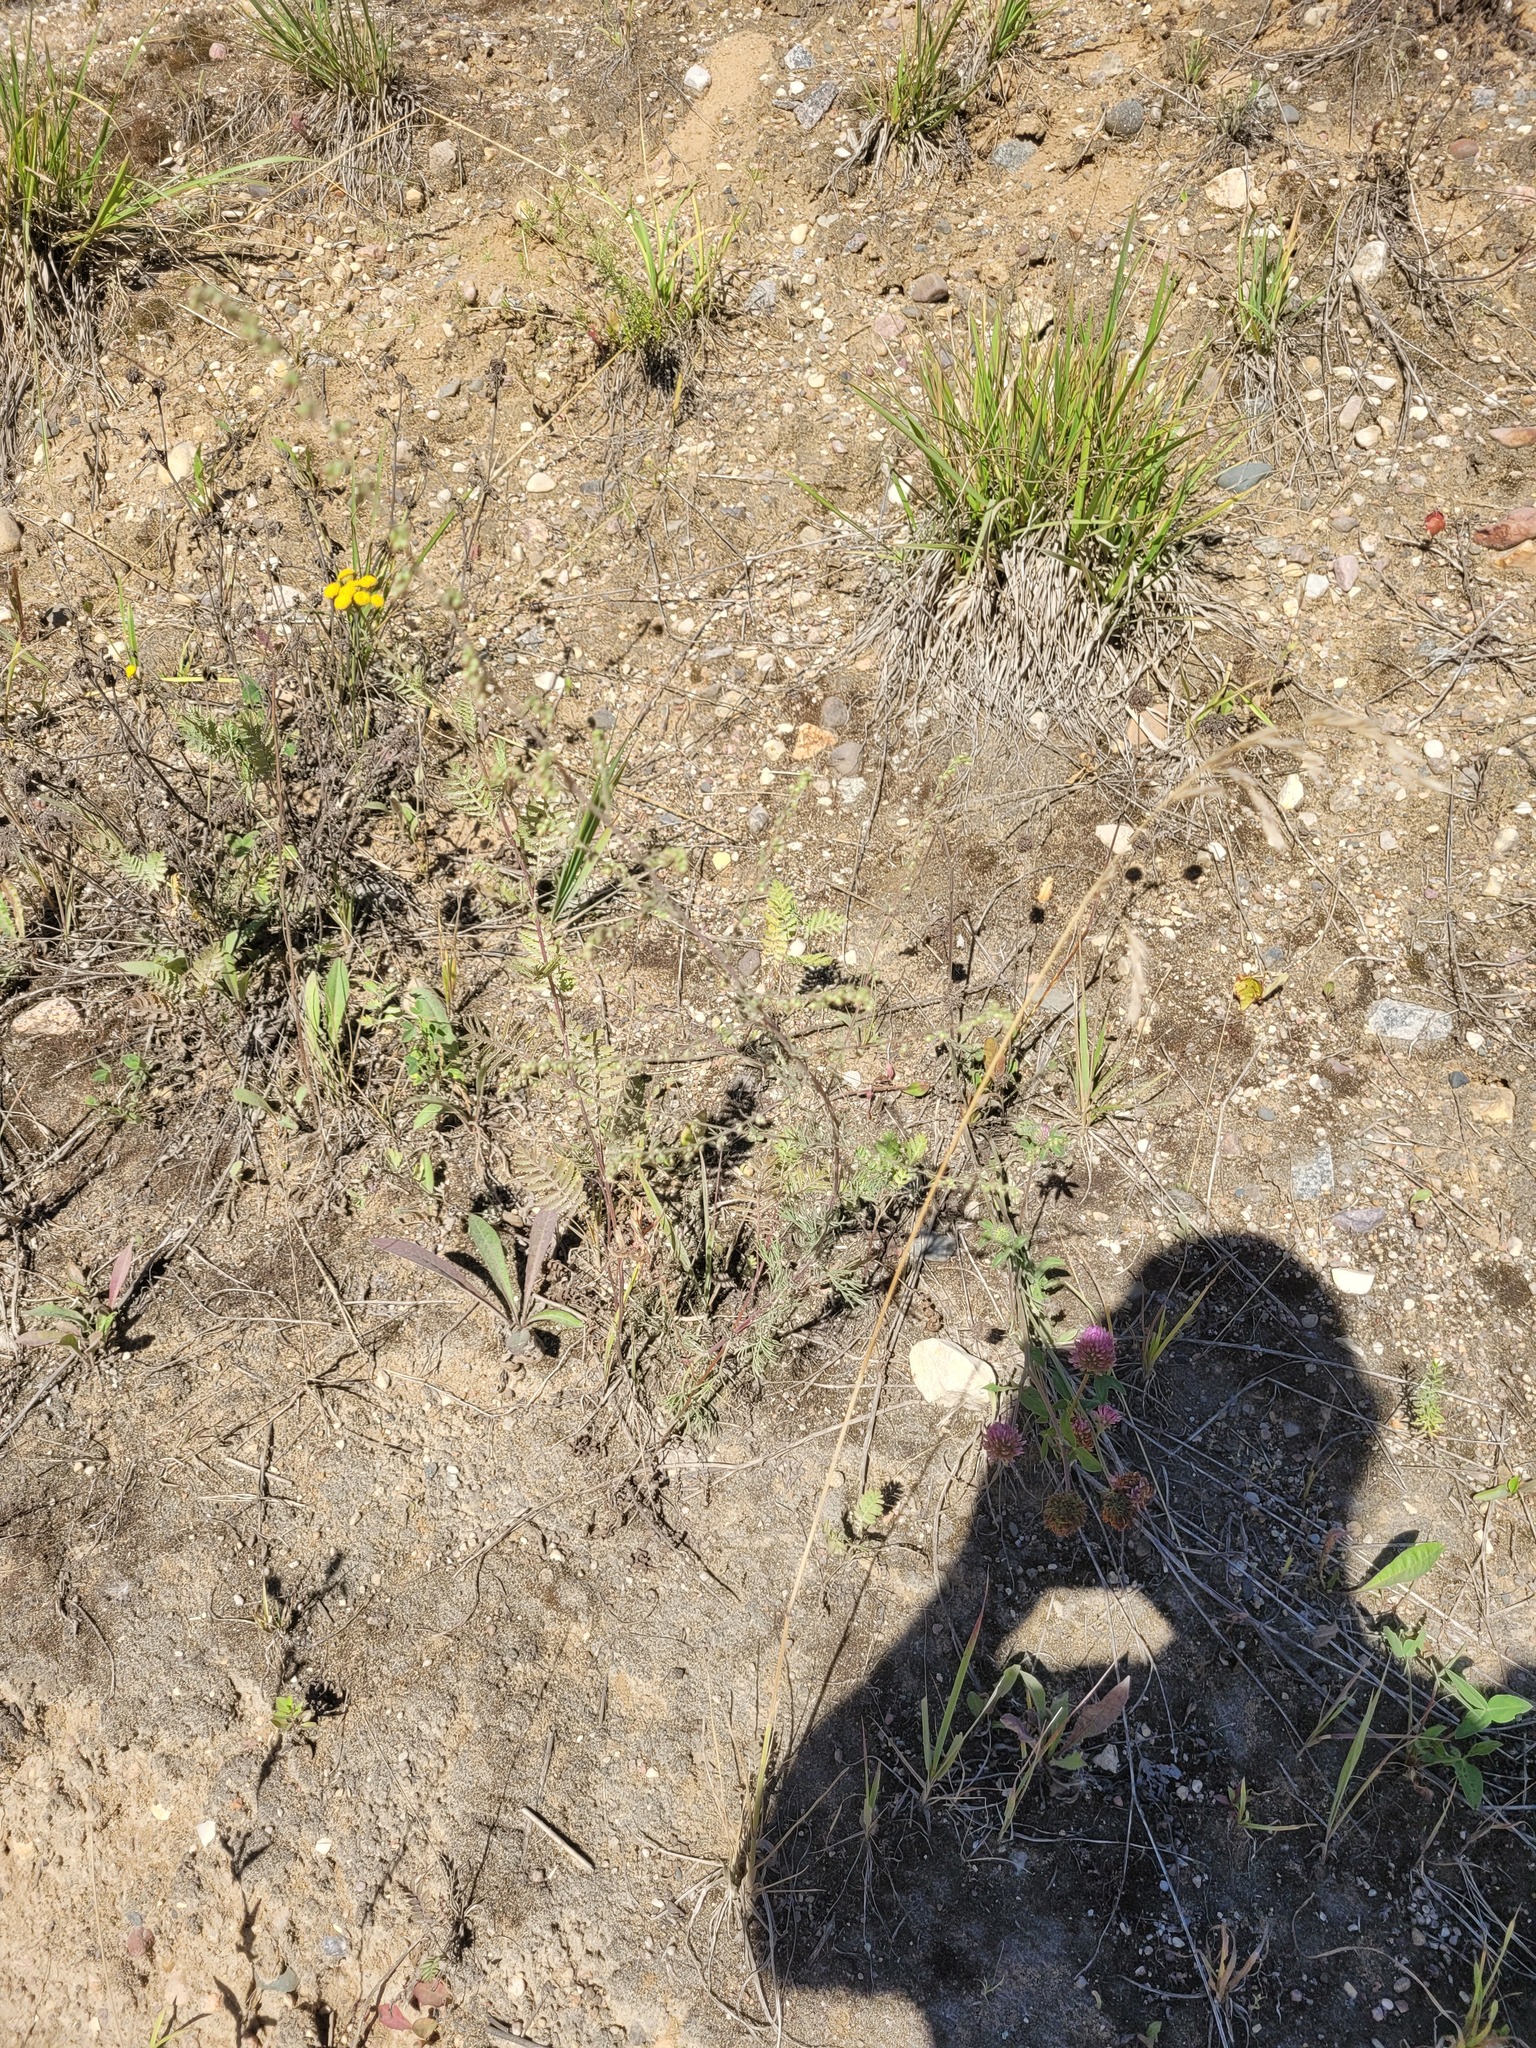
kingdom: Plantae
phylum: Tracheophyta
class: Magnoliopsida
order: Asterales
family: Asteraceae
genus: Tanacetum
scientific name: Tanacetum vulgare
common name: Common tansy
